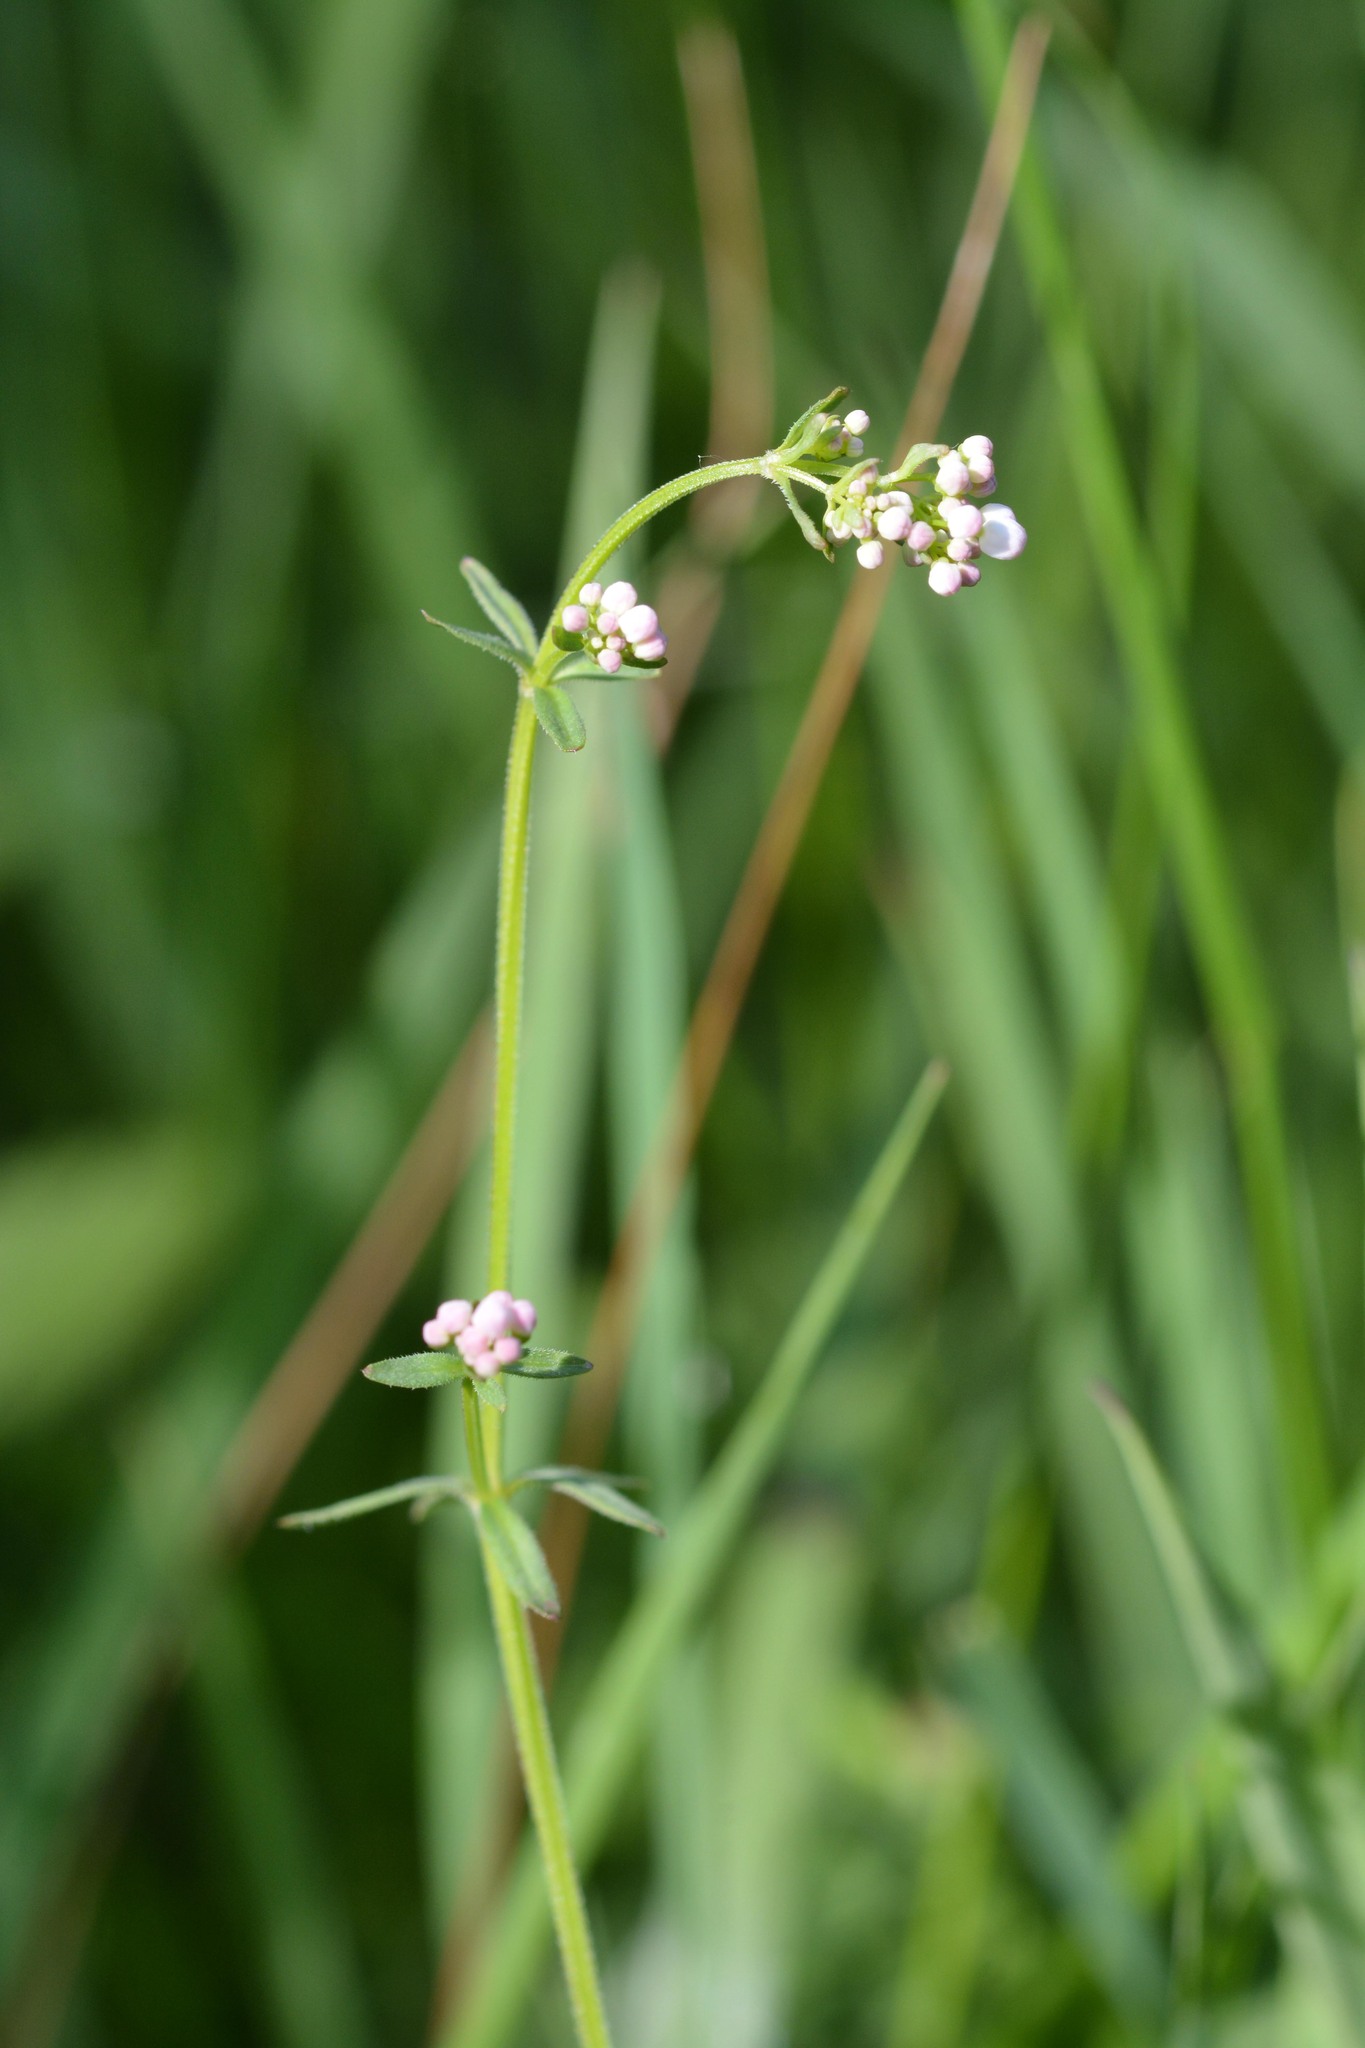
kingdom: Plantae
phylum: Tracheophyta
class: Magnoliopsida
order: Gentianales
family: Rubiaceae
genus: Galium
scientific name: Galium palustre
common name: Common marsh-bedstraw
